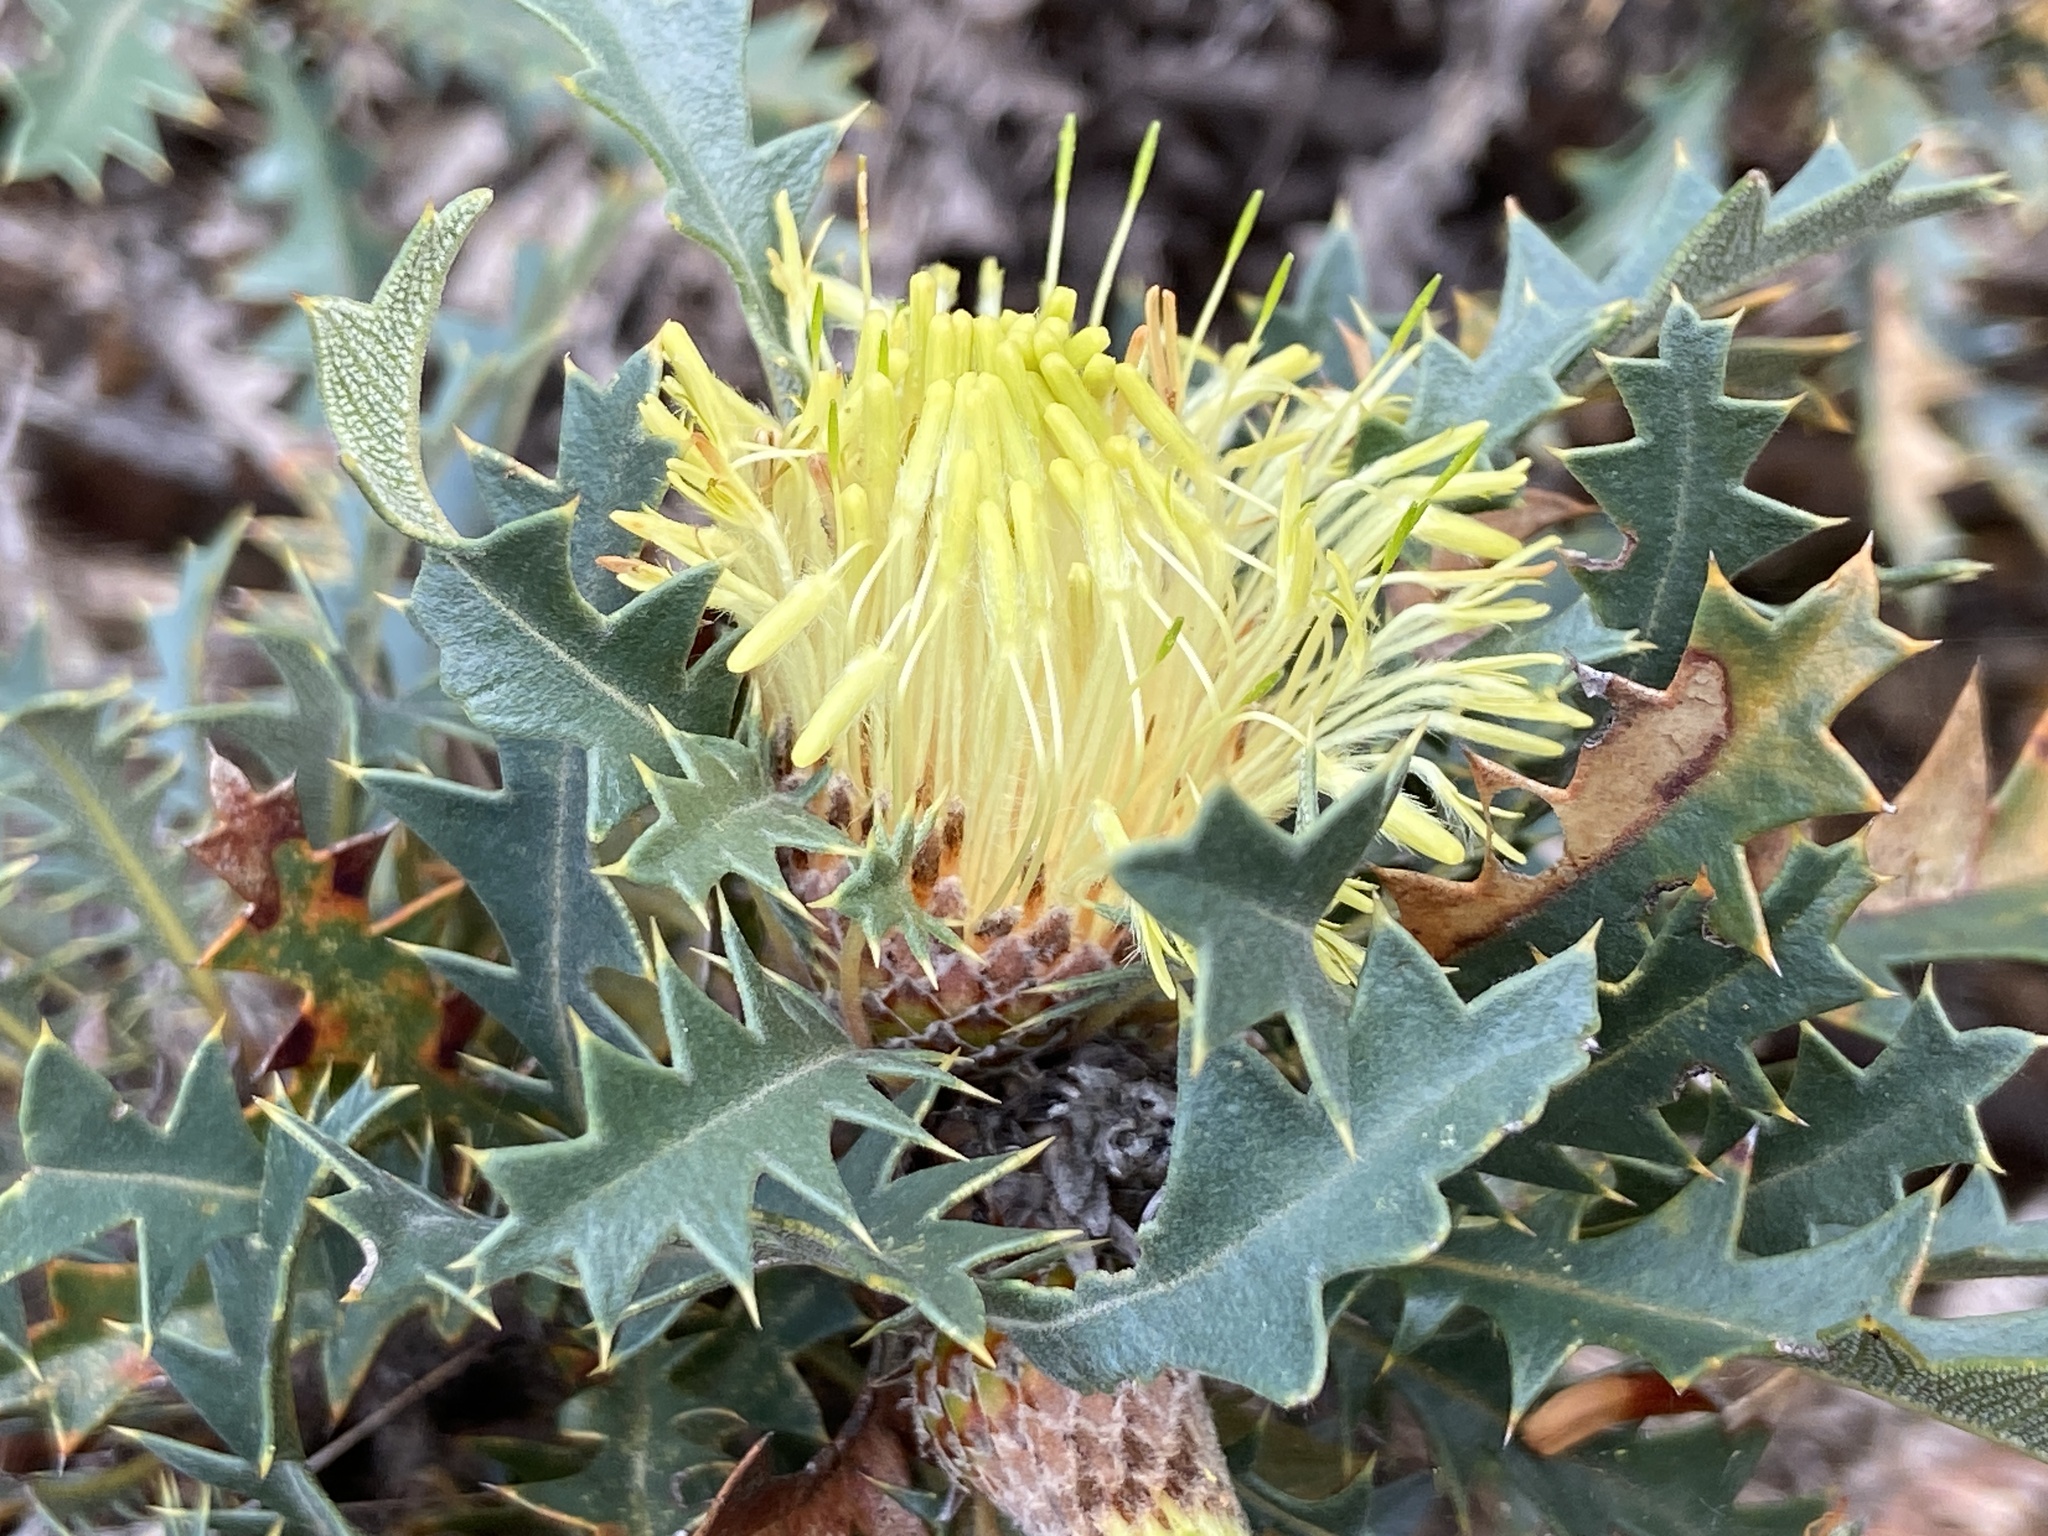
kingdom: Plantae
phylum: Tracheophyta
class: Magnoliopsida
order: Proteales
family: Proteaceae
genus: Banksia
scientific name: Banksia armata
